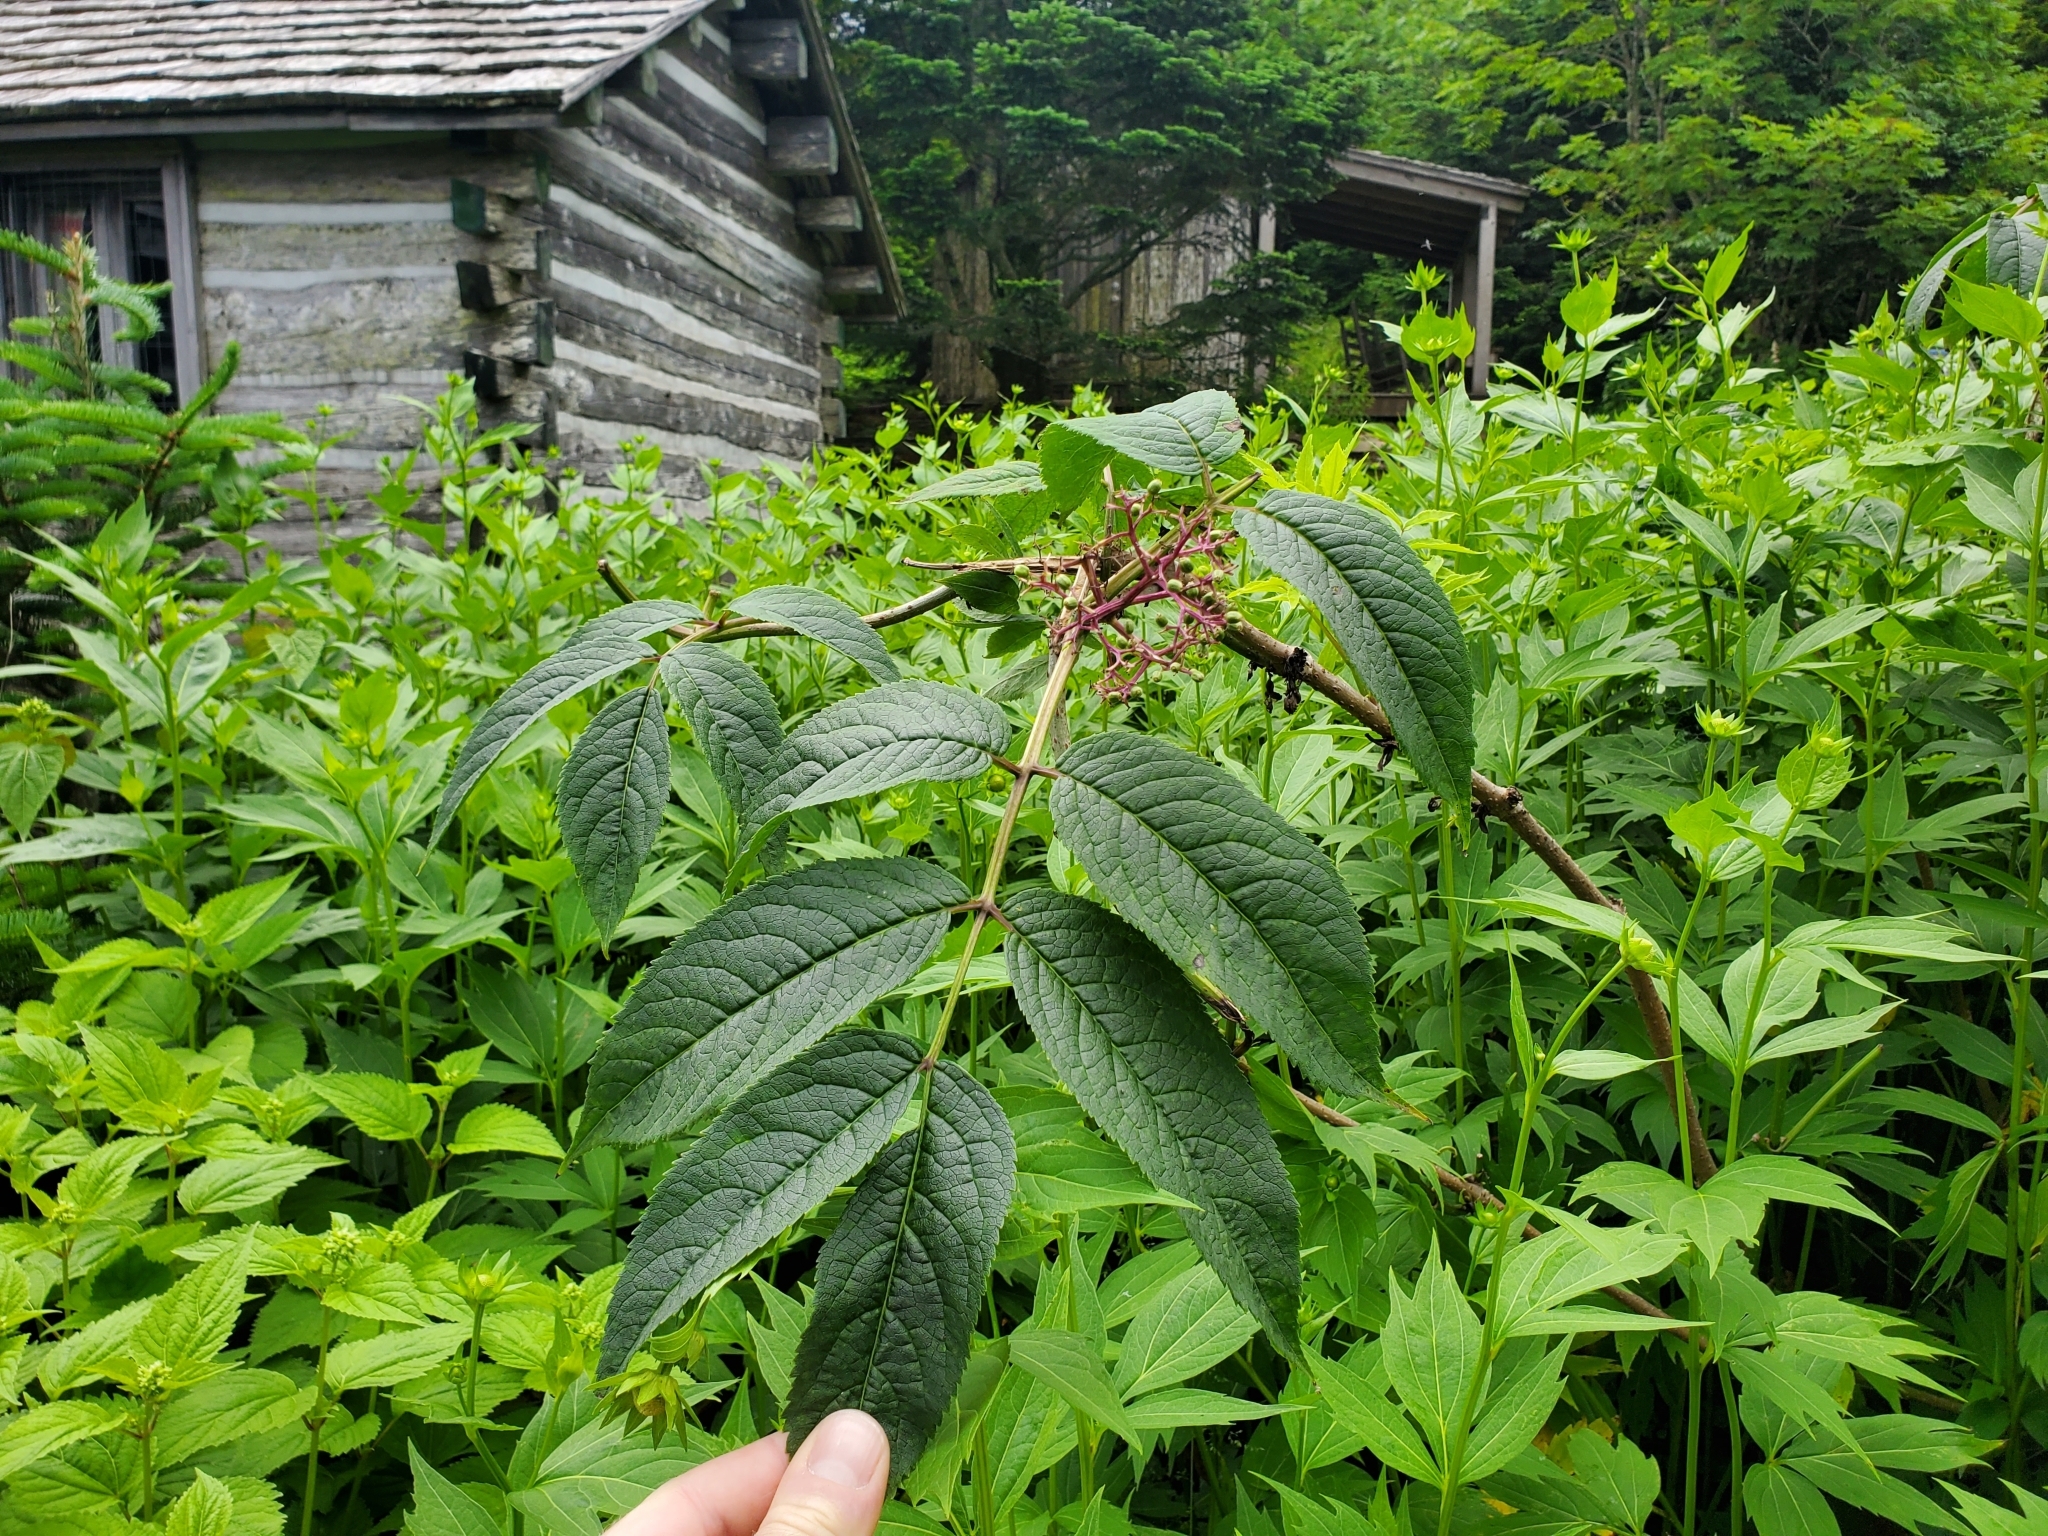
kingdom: Plantae
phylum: Tracheophyta
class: Magnoliopsida
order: Dipsacales
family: Viburnaceae
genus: Sambucus
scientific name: Sambucus racemosa
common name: Red-berried elder
